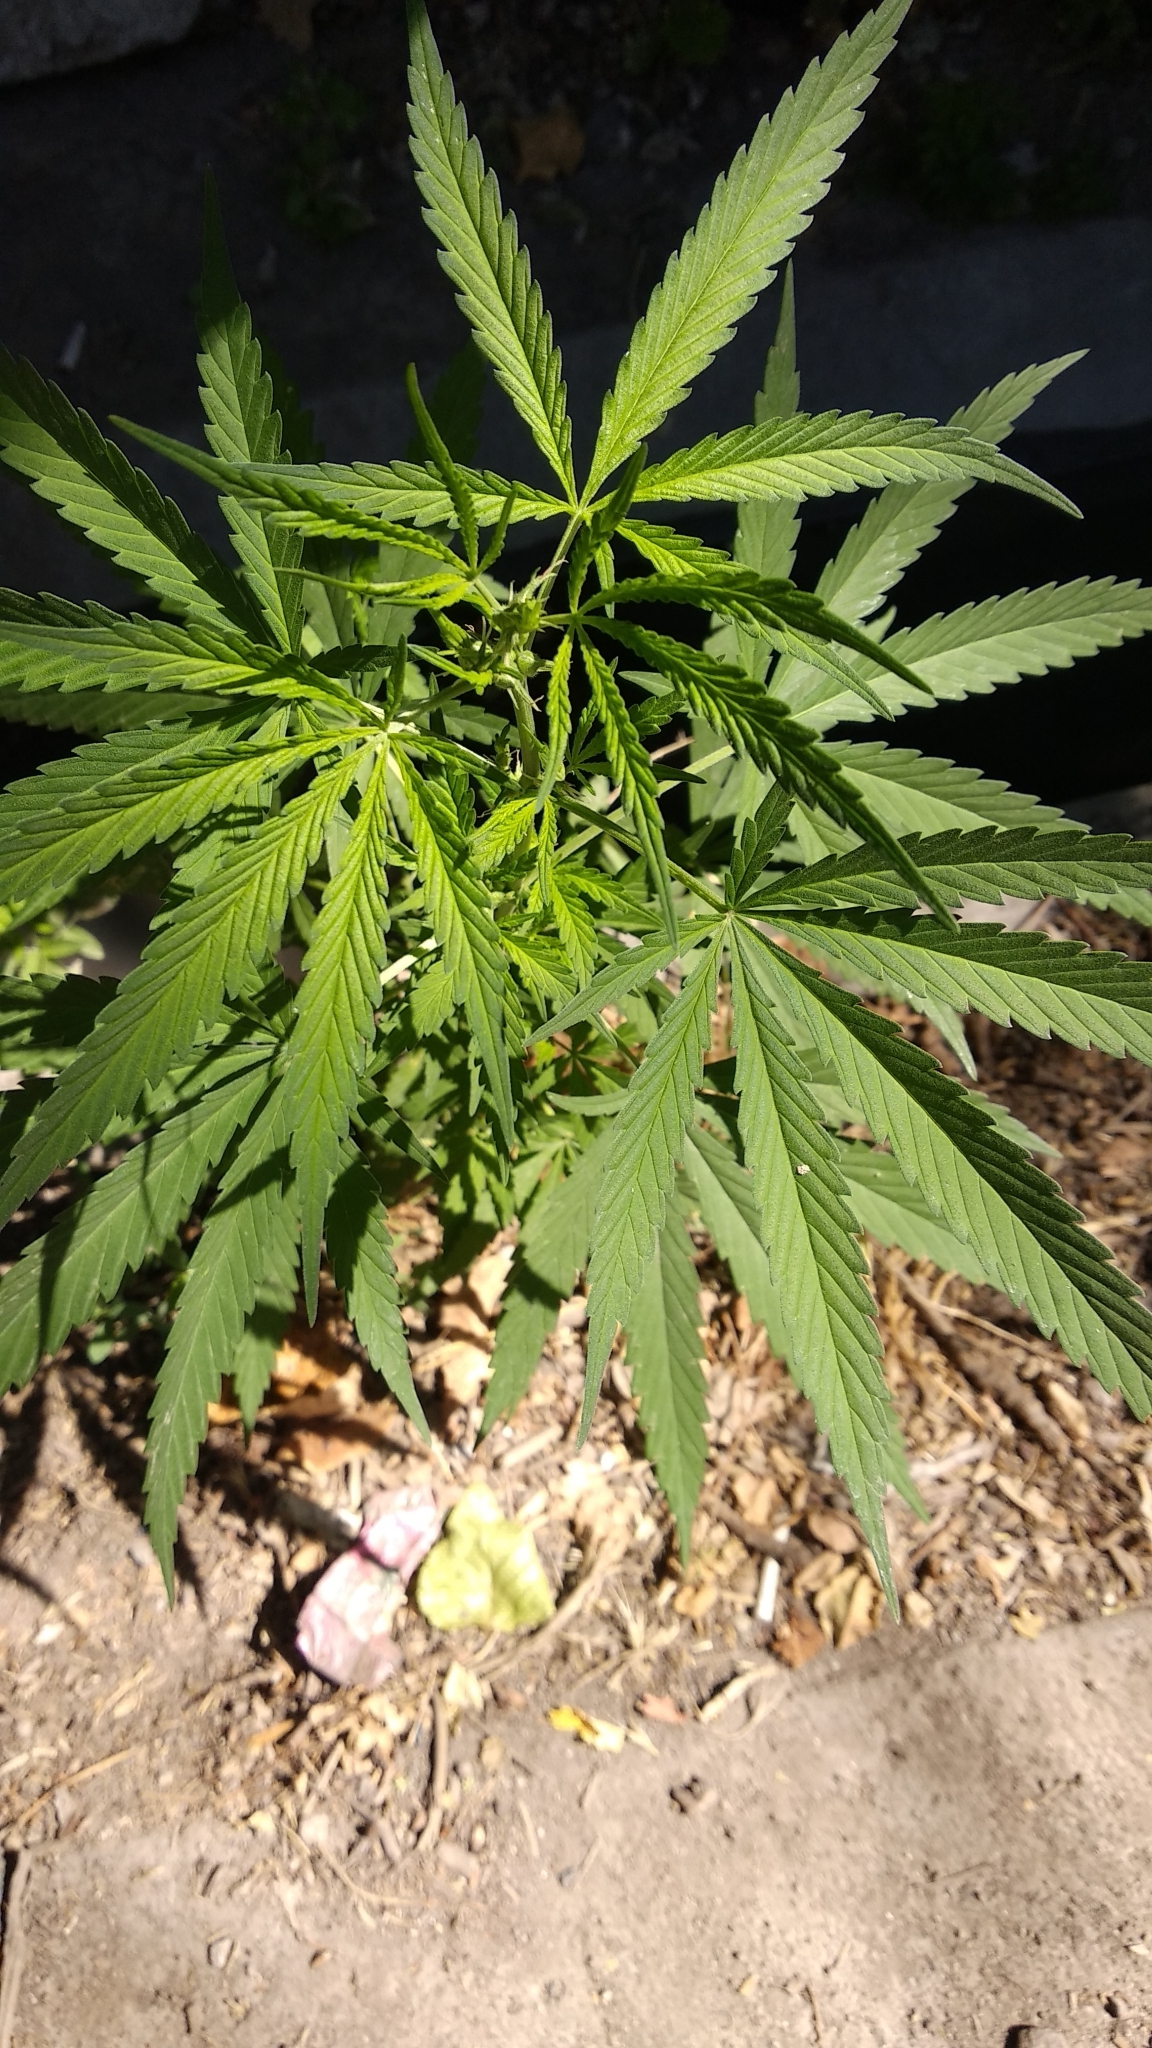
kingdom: Plantae
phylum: Tracheophyta
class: Magnoliopsida
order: Rosales
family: Cannabaceae
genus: Cannabis
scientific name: Cannabis sativa
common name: Hemp
